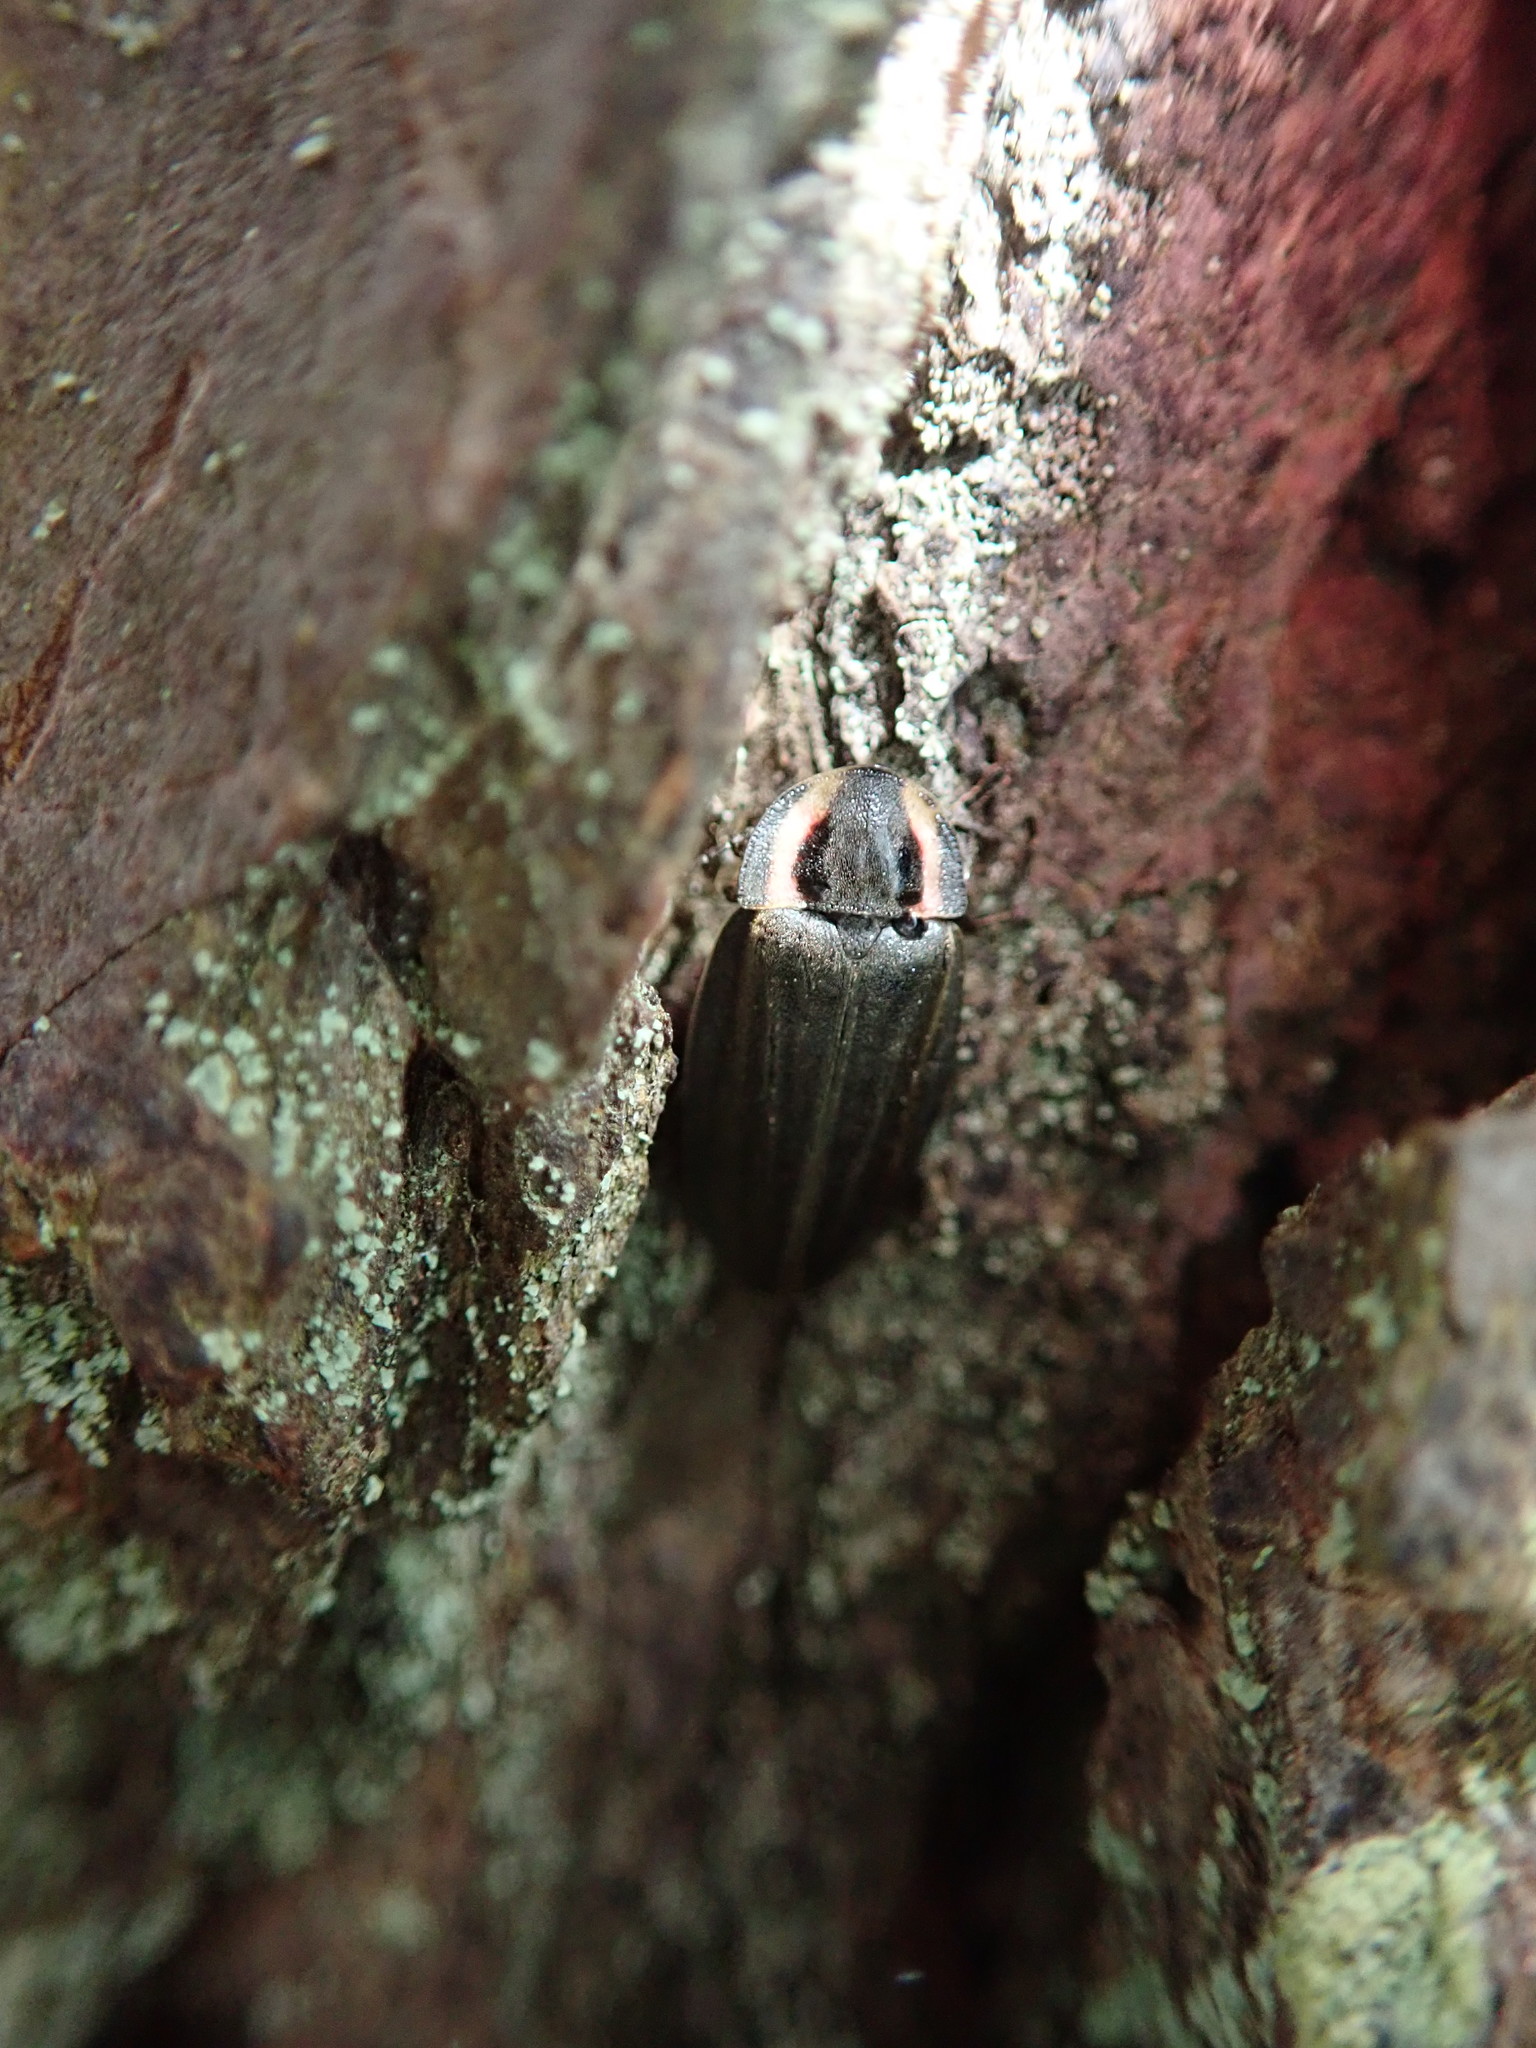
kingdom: Animalia
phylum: Arthropoda
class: Insecta
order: Coleoptera
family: Lampyridae
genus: Photinus
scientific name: Photinus corrusca
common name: Winter firefly
